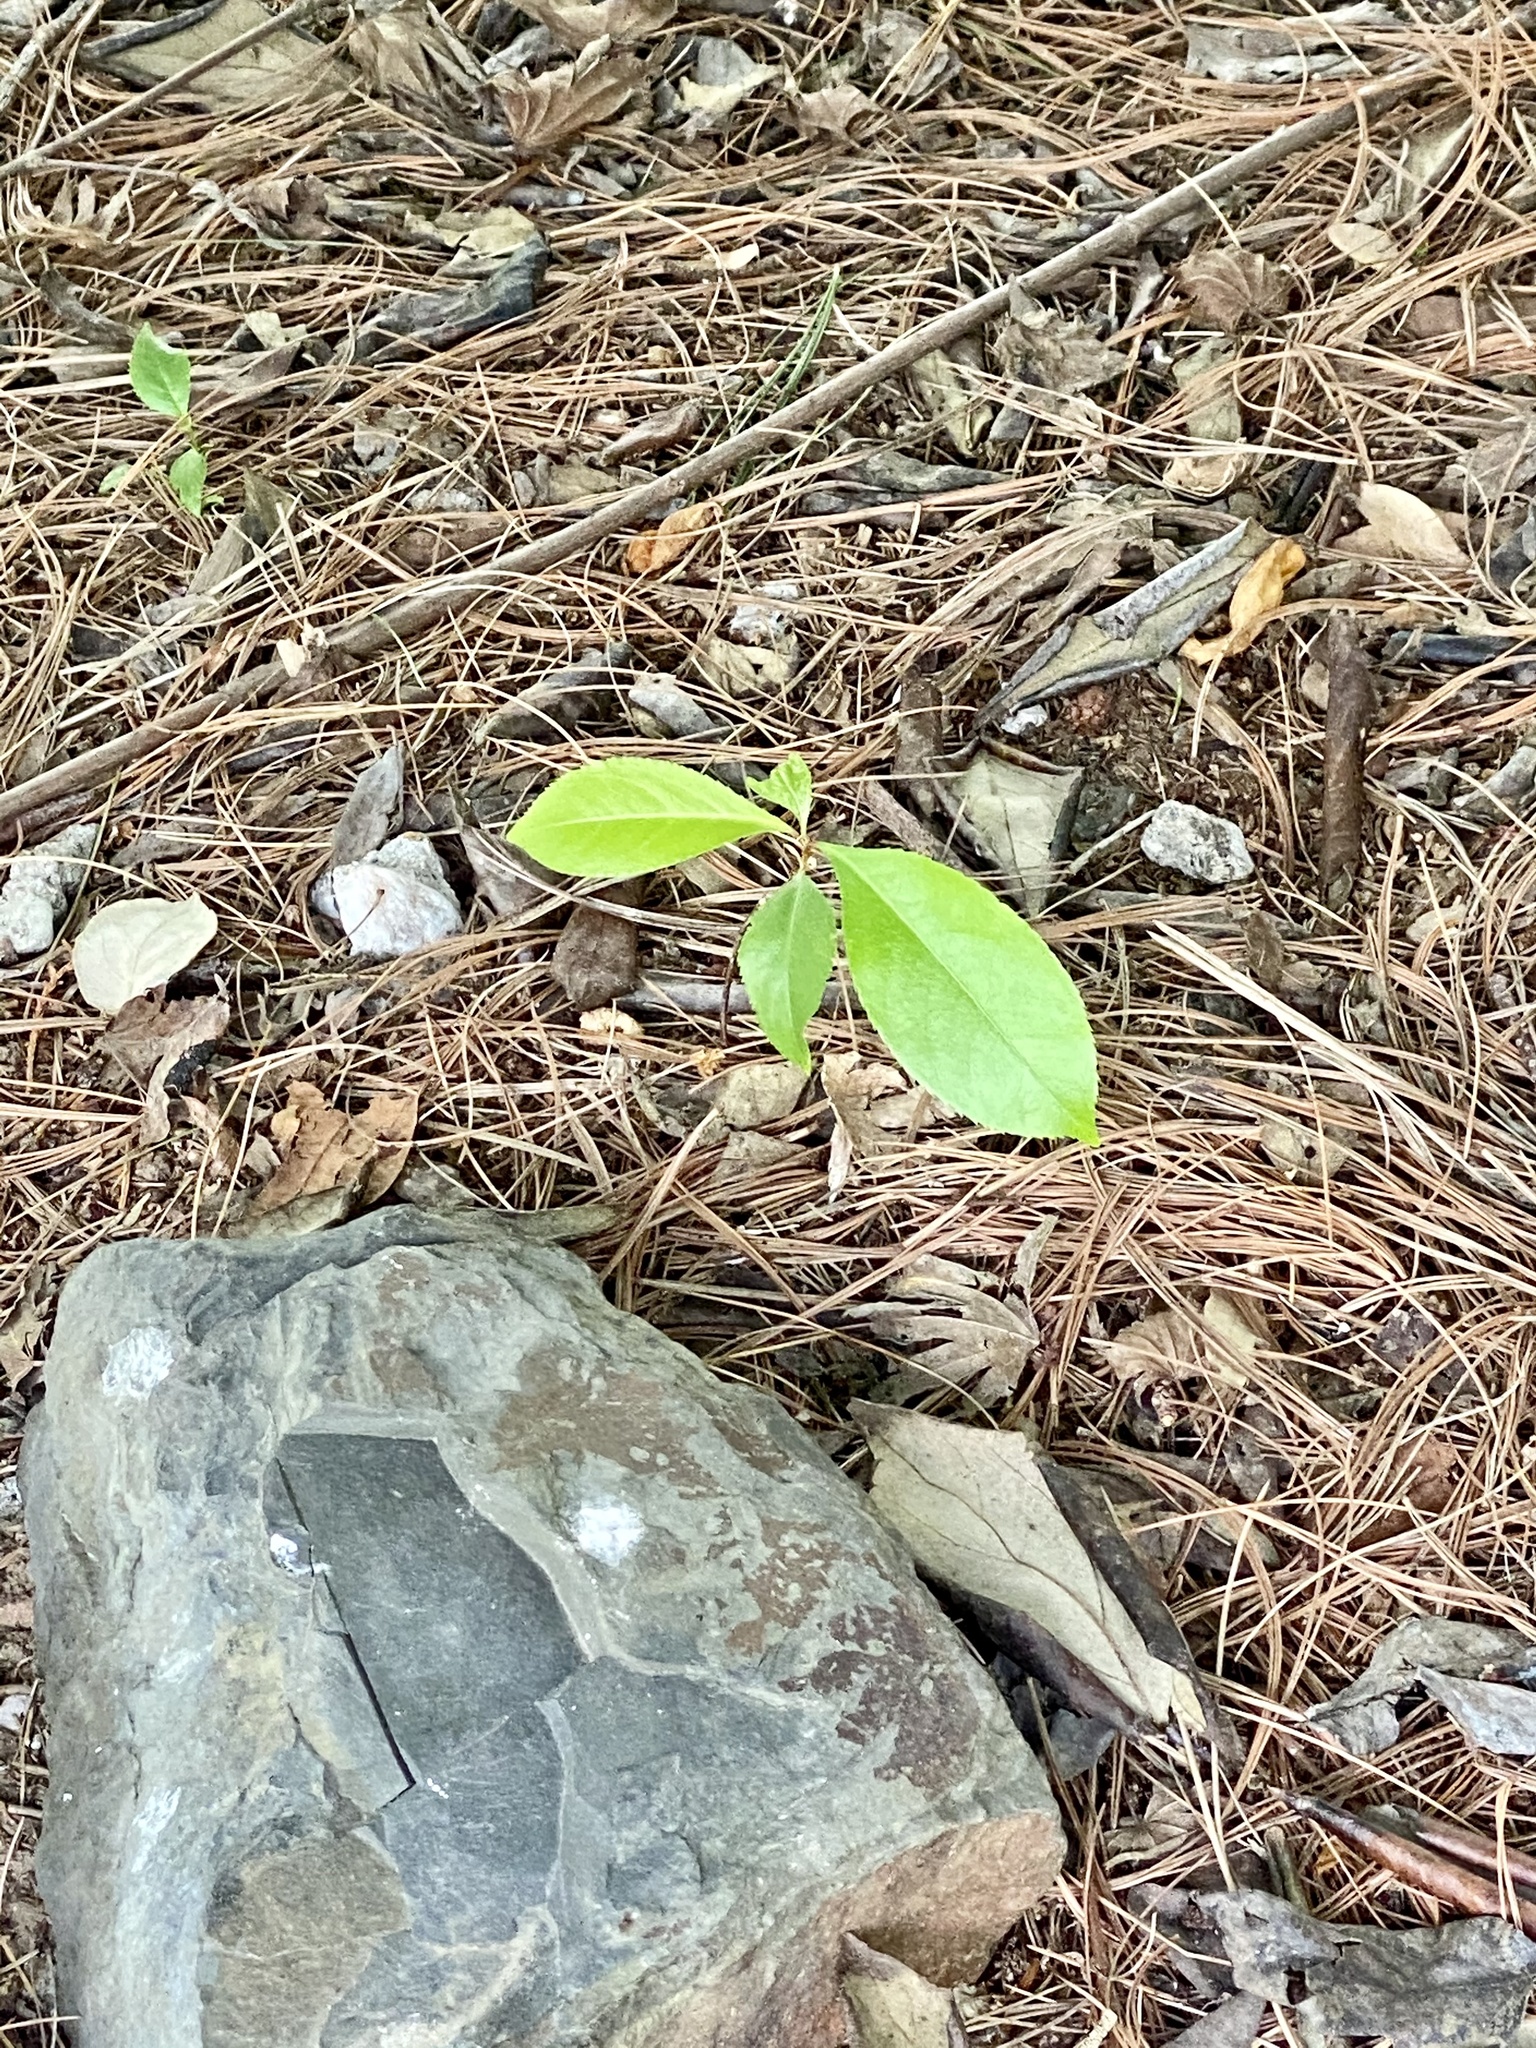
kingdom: Plantae
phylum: Tracheophyta
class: Magnoliopsida
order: Rosales
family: Rosaceae
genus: Prunus
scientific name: Prunus serotina
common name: Black cherry
